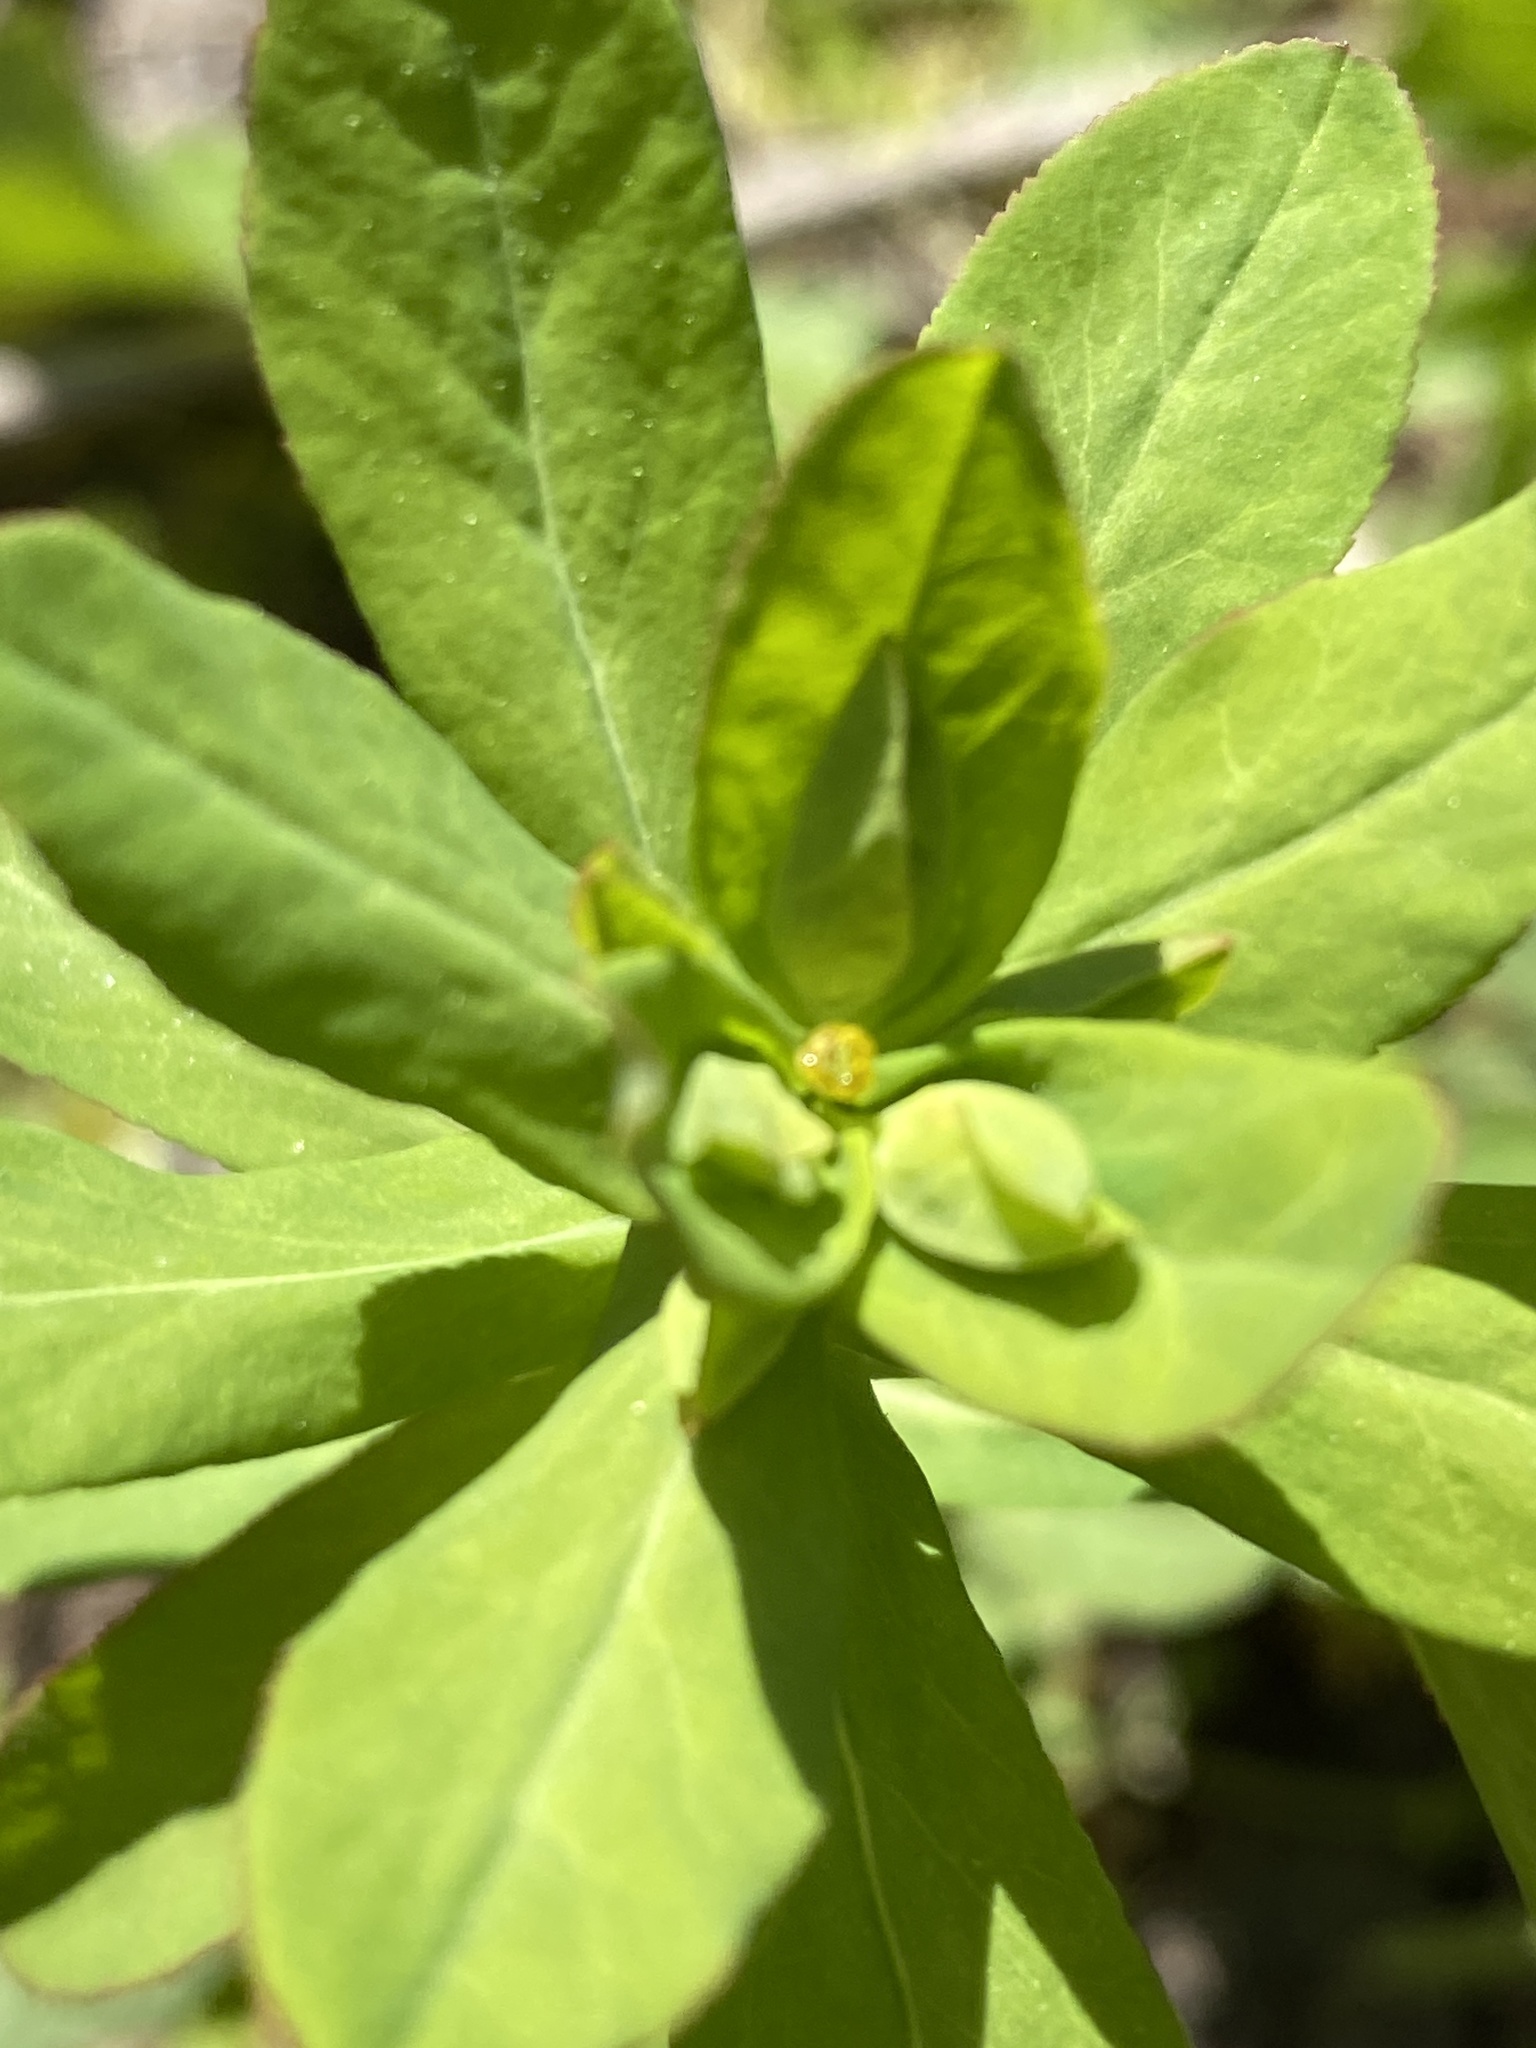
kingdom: Plantae
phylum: Tracheophyta
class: Magnoliopsida
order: Malpighiales
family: Euphorbiaceae
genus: Euphorbia
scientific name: Euphorbia spathulata
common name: Blunt spurge
